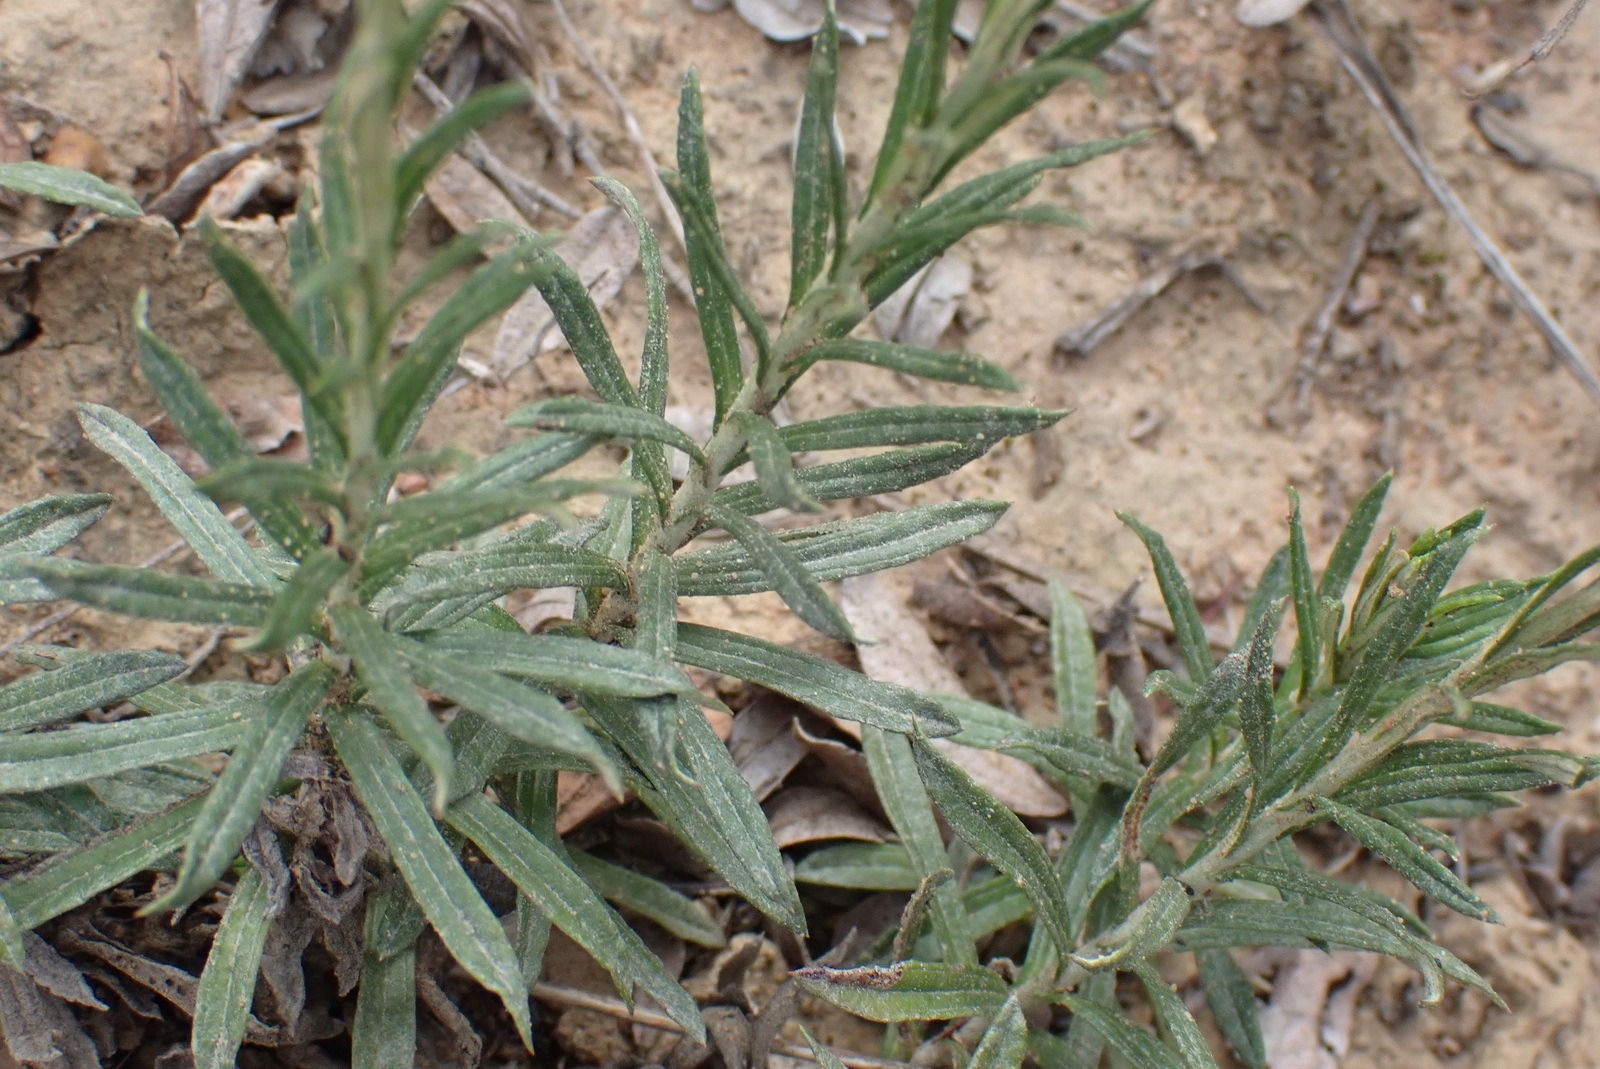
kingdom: Plantae
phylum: Tracheophyta
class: Magnoliopsida
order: Asterales
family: Asteraceae
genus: Helichrysum
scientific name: Helichrysum rugulosum
